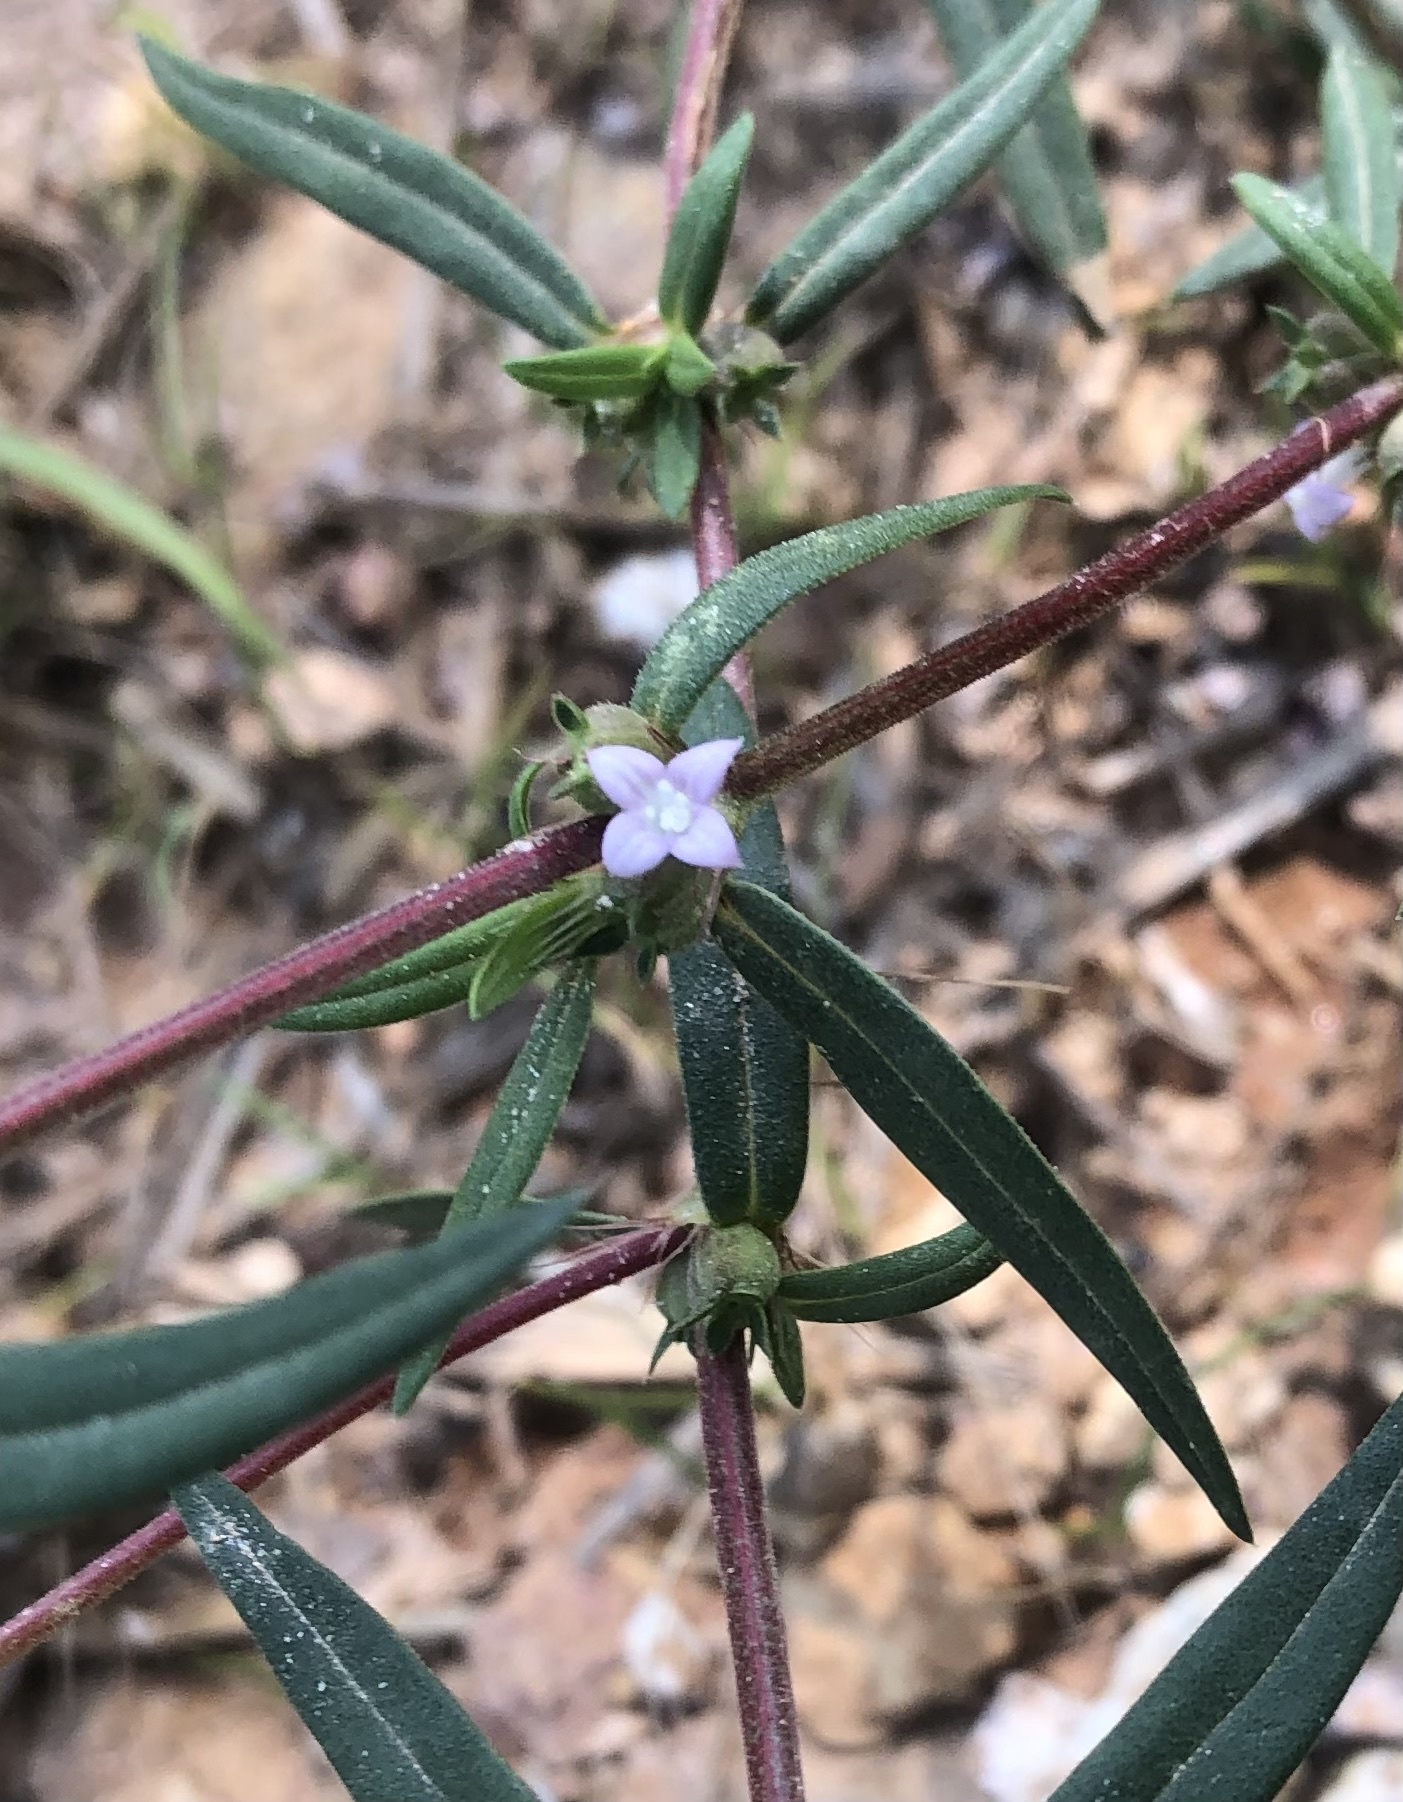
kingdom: Plantae
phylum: Tracheophyta
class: Magnoliopsida
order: Gentianales
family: Rubiaceae
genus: Hexasepalum
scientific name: Hexasepalum teres
